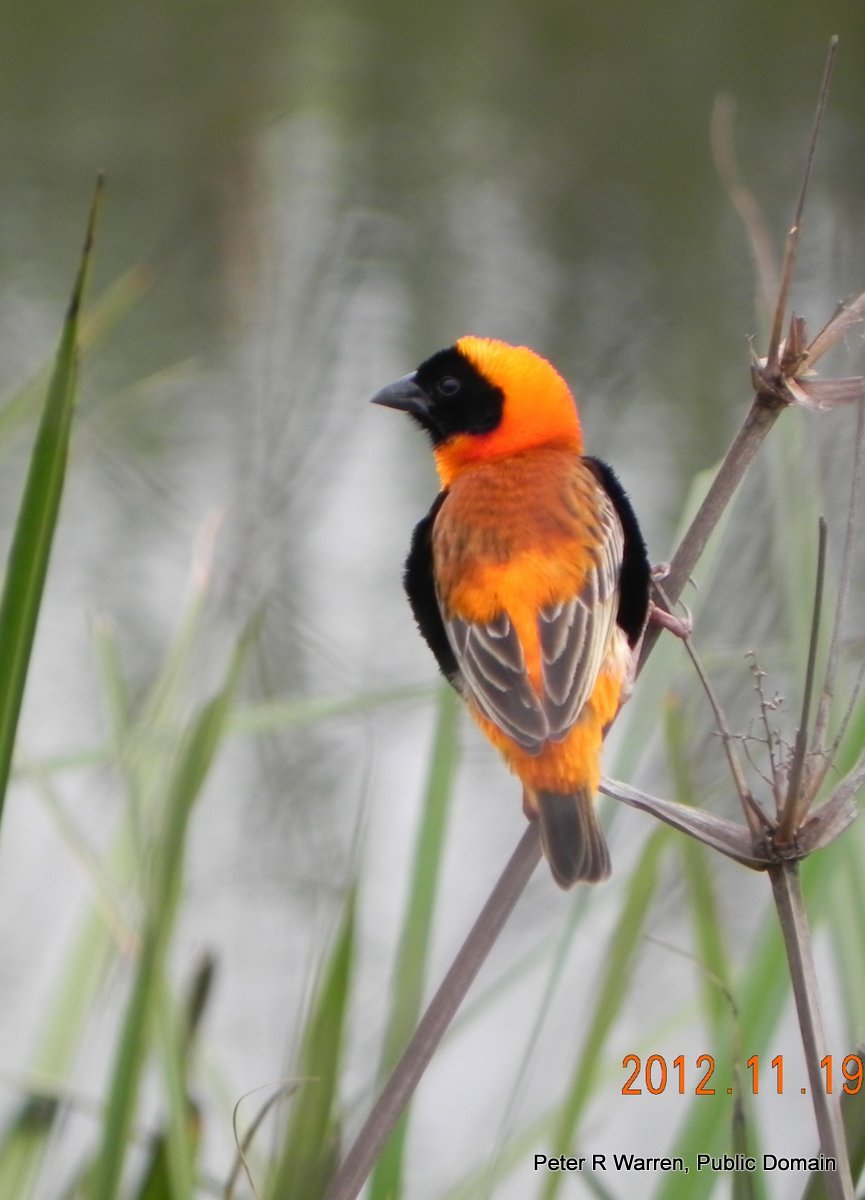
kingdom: Animalia
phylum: Chordata
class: Aves
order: Passeriformes
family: Ploceidae
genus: Euplectes
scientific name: Euplectes orix
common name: Southern red bishop
